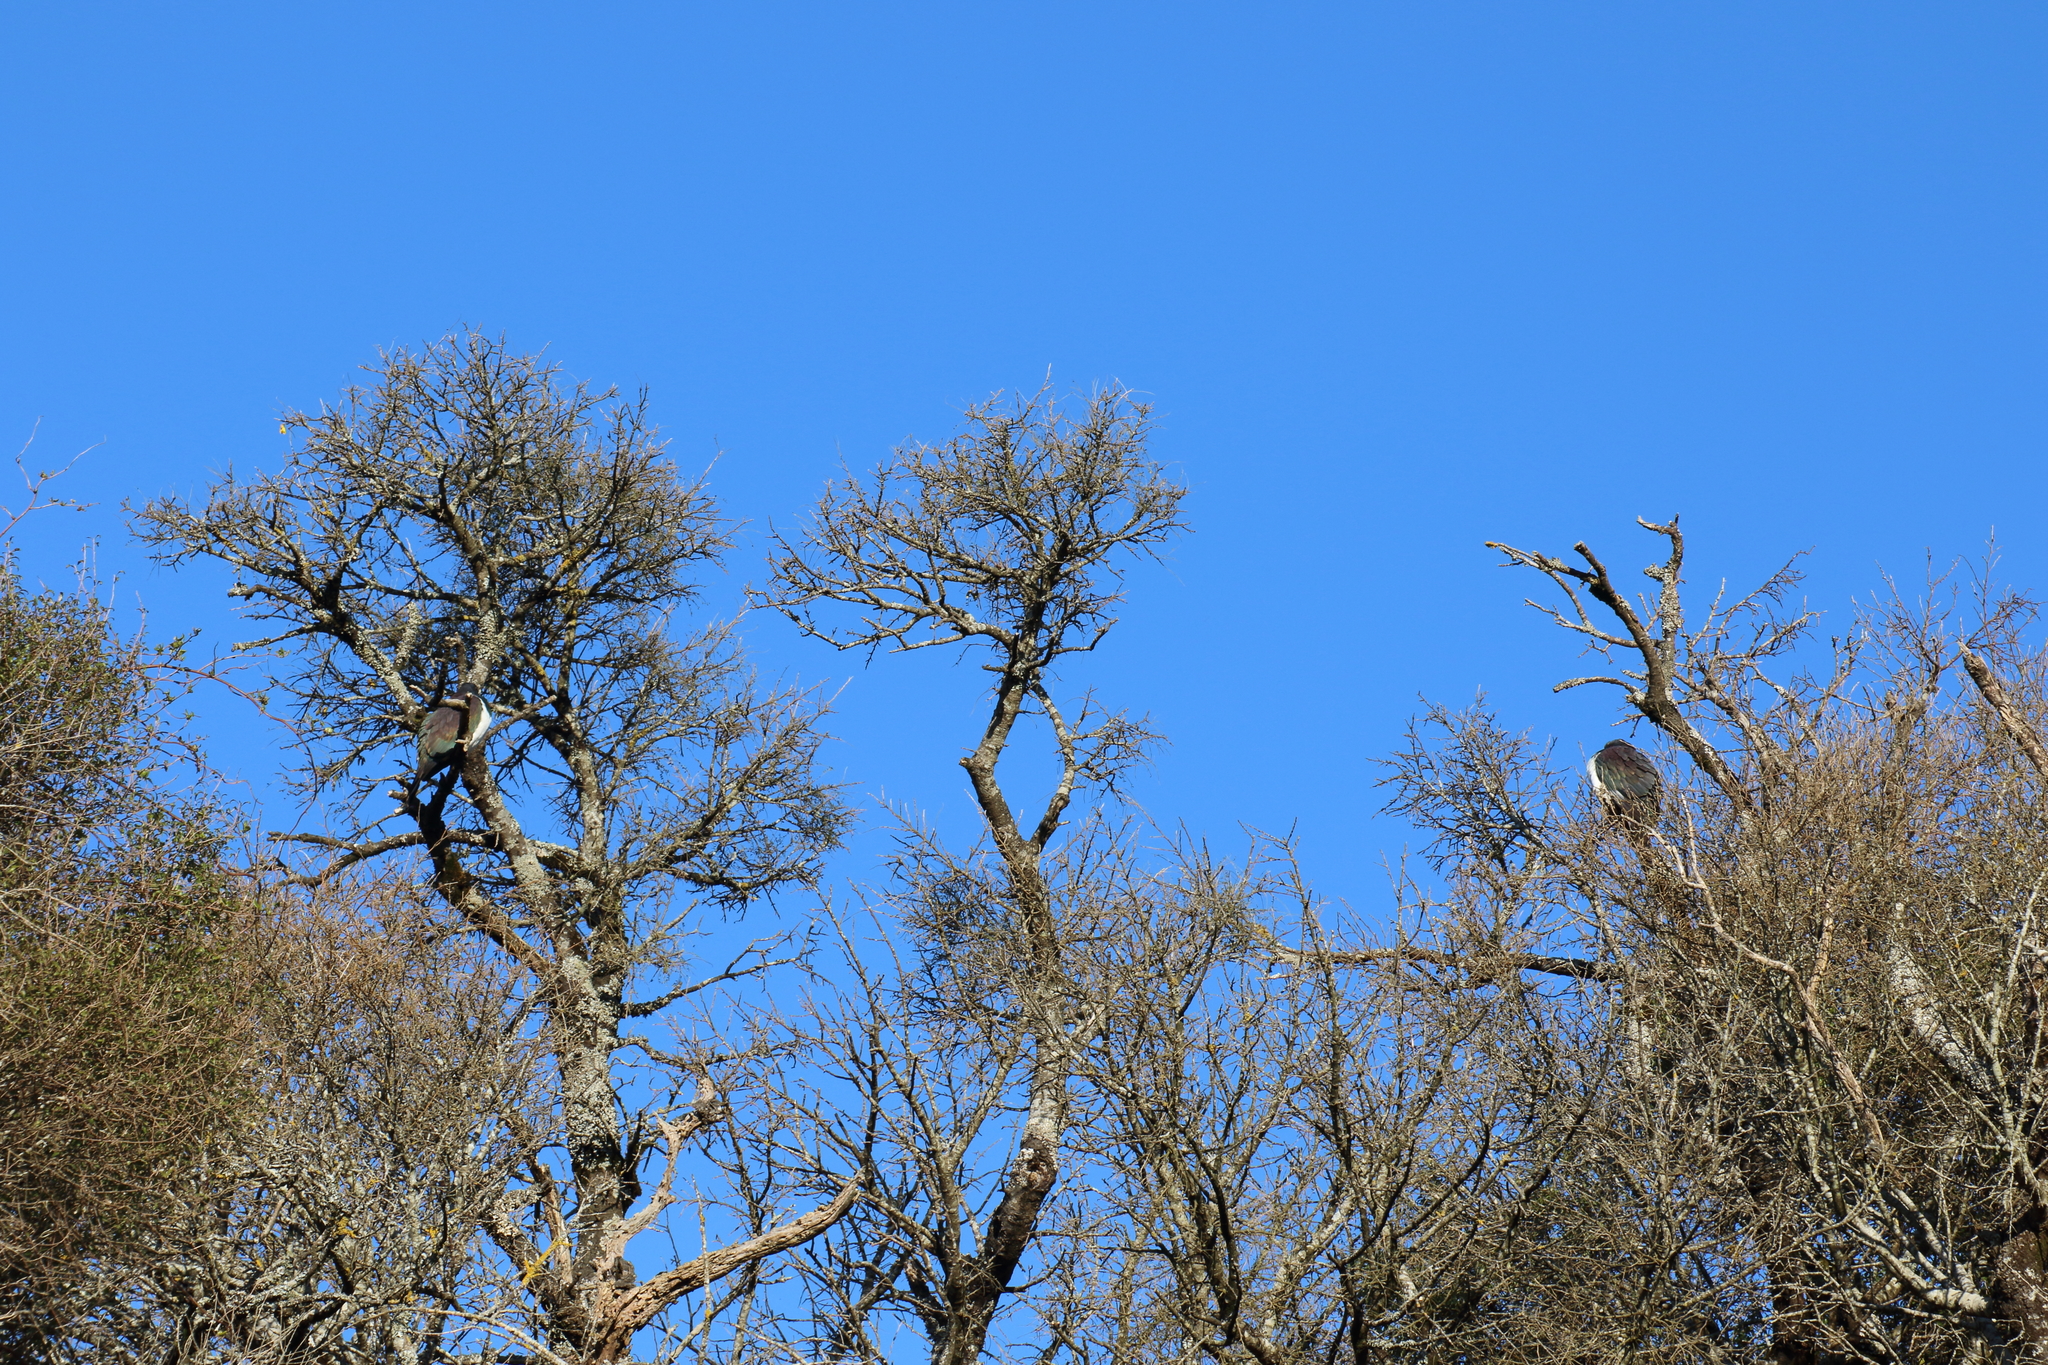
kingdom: Animalia
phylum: Chordata
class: Aves
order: Columbiformes
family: Columbidae
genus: Hemiphaga
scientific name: Hemiphaga novaeseelandiae
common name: New zealand pigeon
